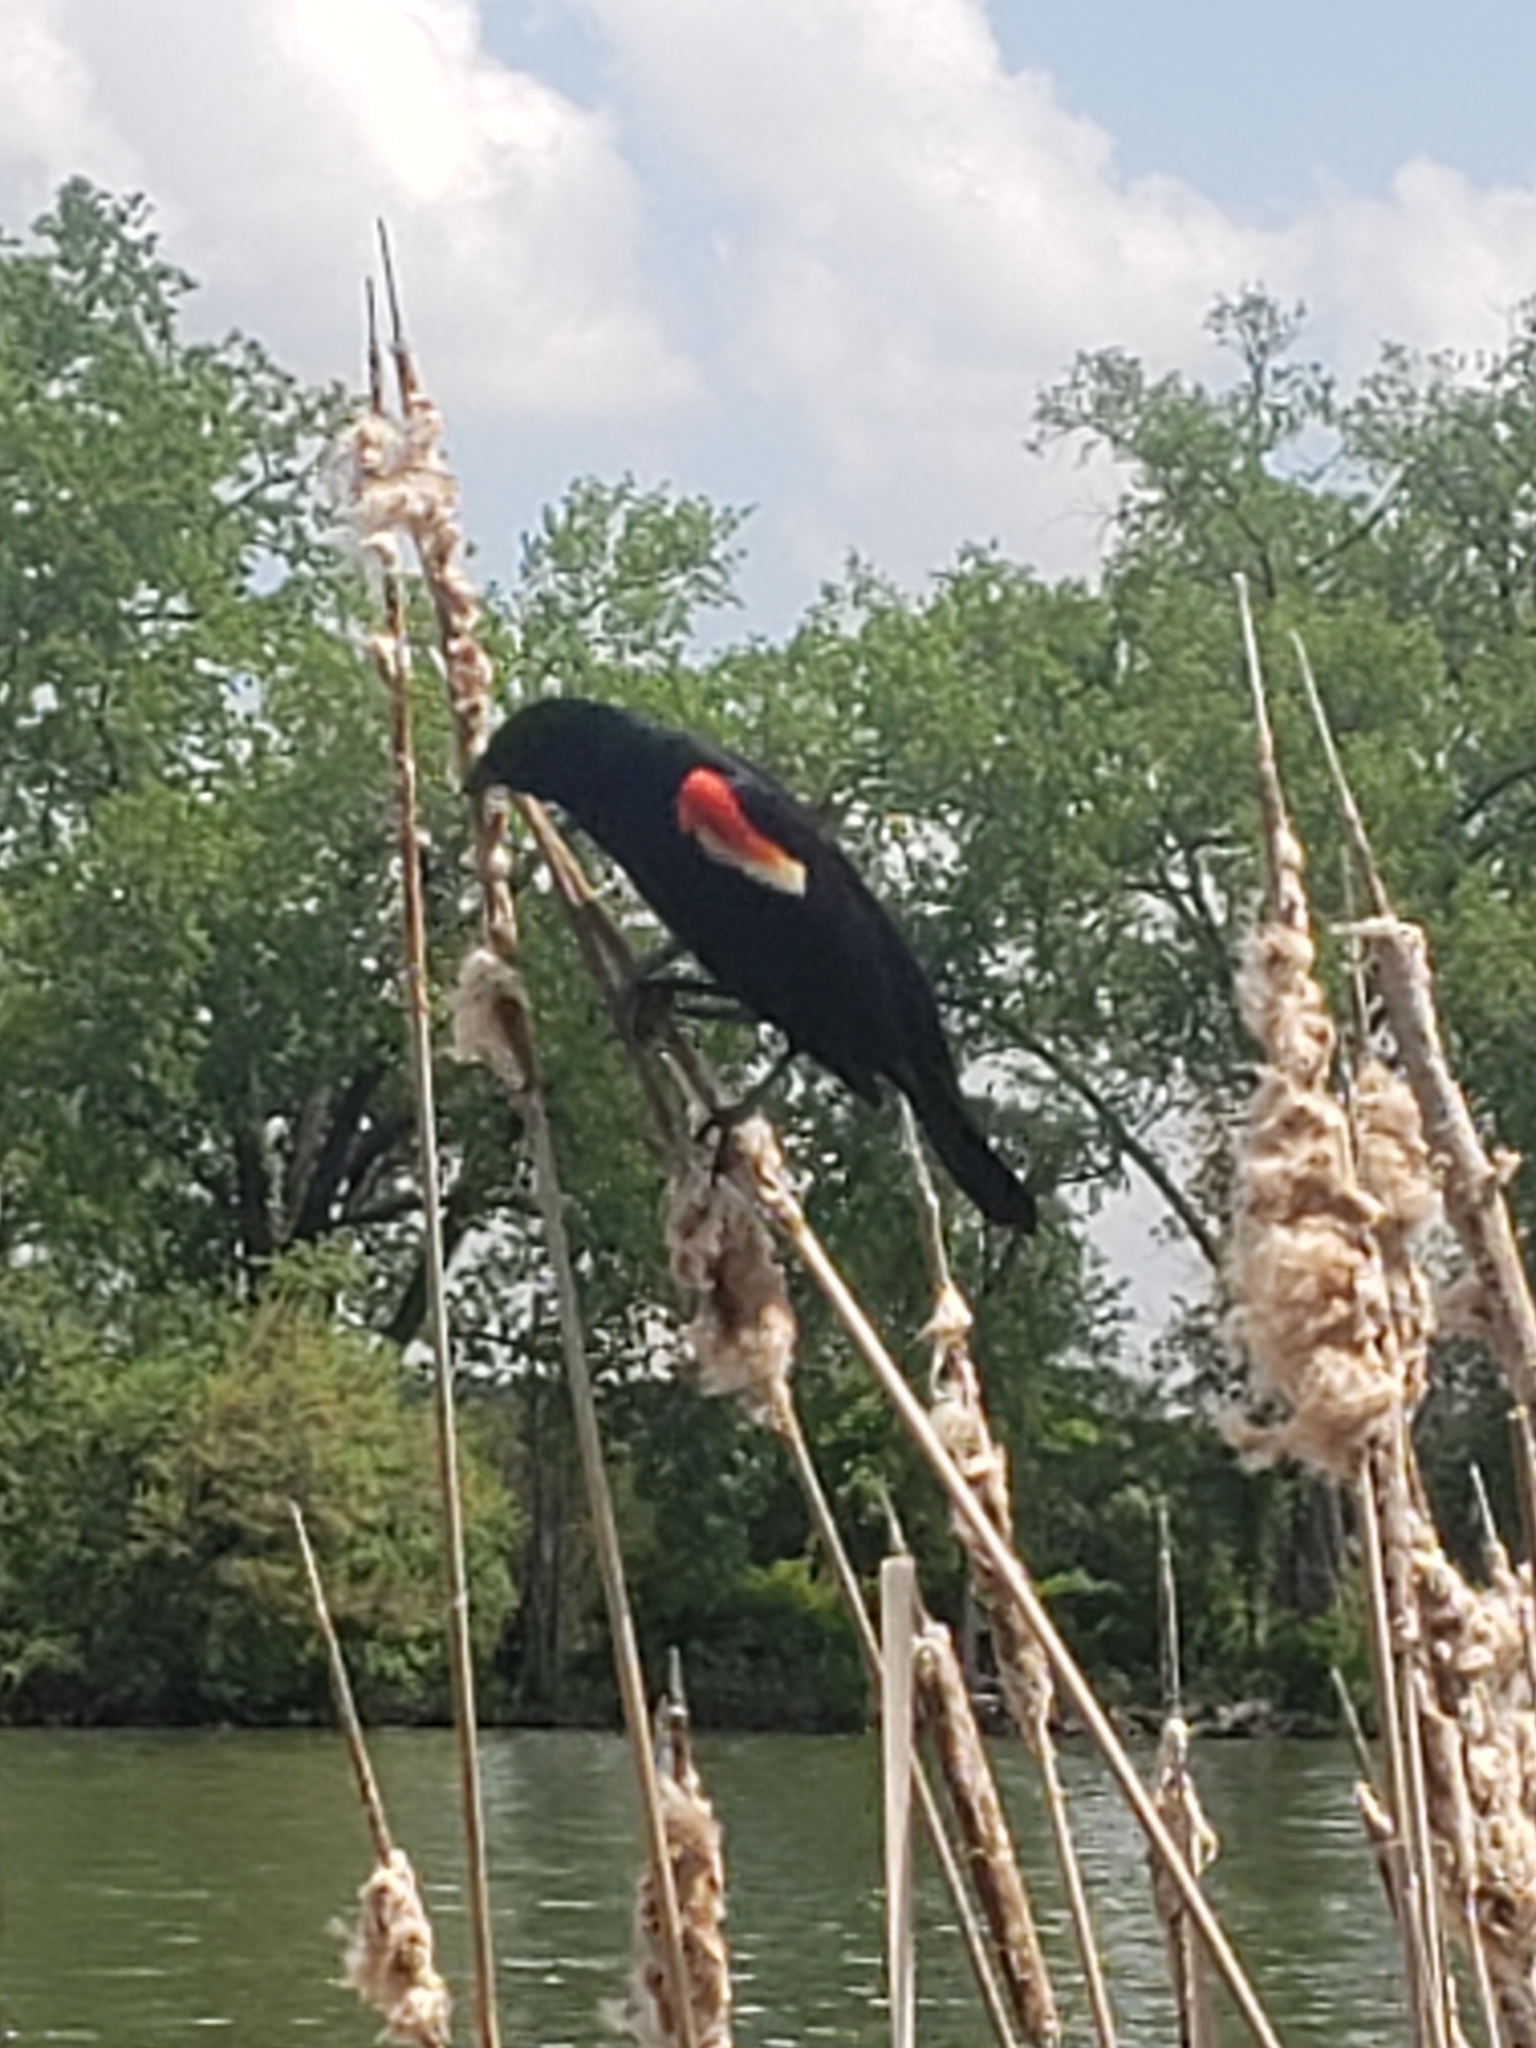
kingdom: Animalia
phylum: Chordata
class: Aves
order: Passeriformes
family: Icteridae
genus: Agelaius
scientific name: Agelaius phoeniceus
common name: Red-winged blackbird
